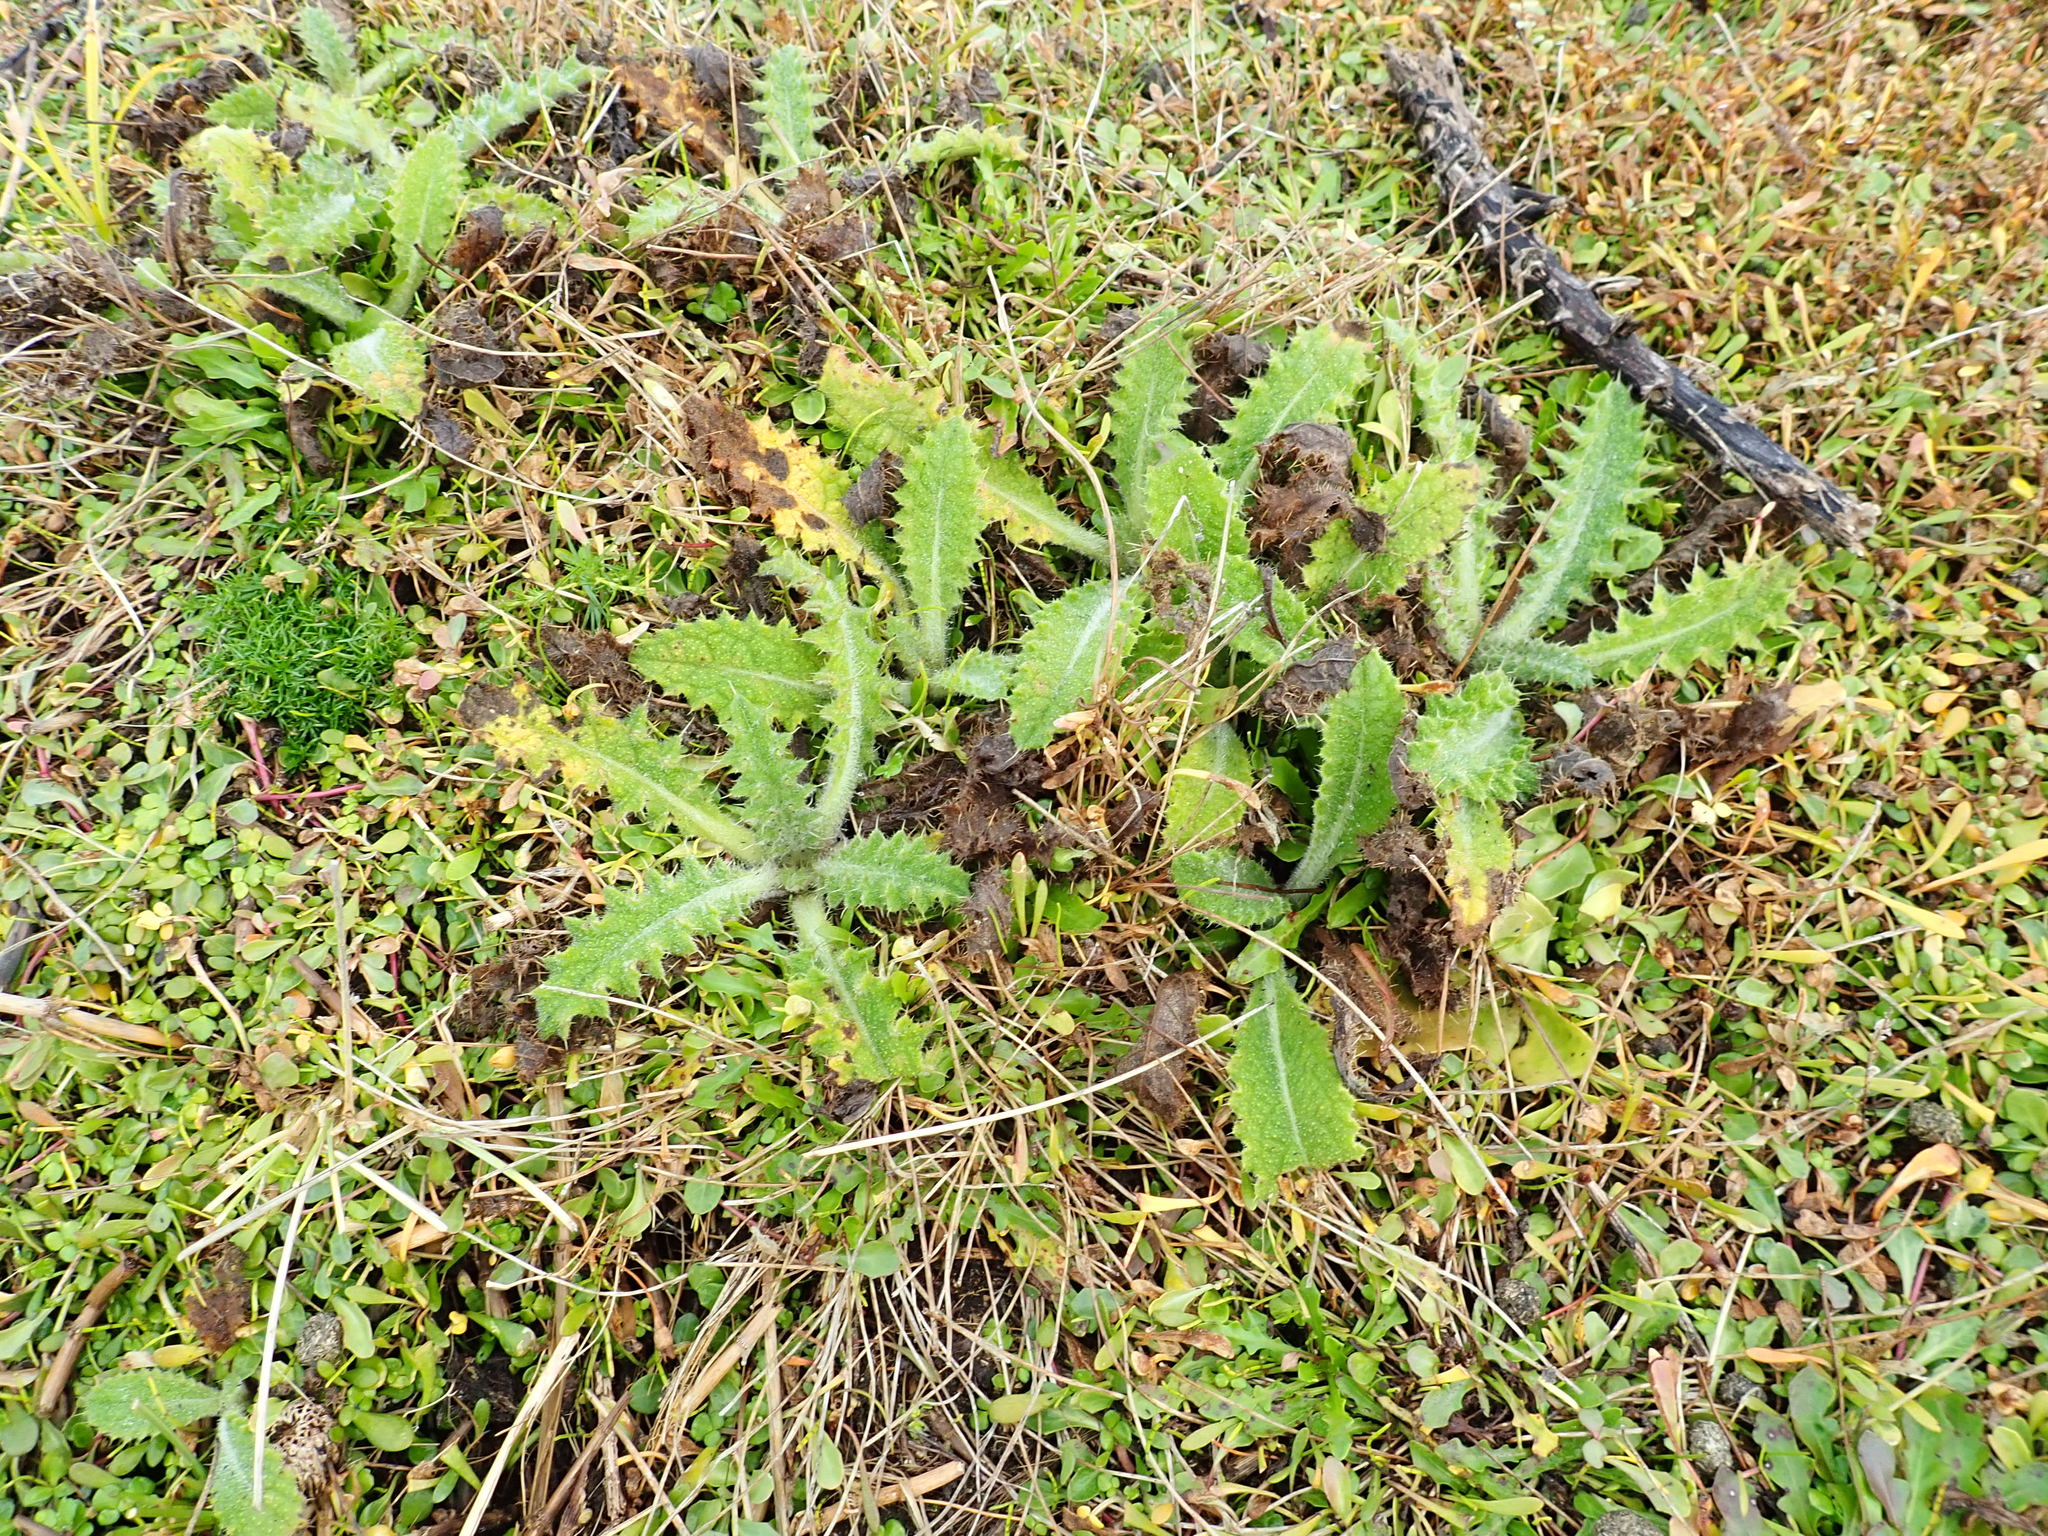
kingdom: Plantae
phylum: Tracheophyta
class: Magnoliopsida
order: Asterales
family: Asteraceae
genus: Cirsium
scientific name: Cirsium vulgare
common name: Bull thistle
